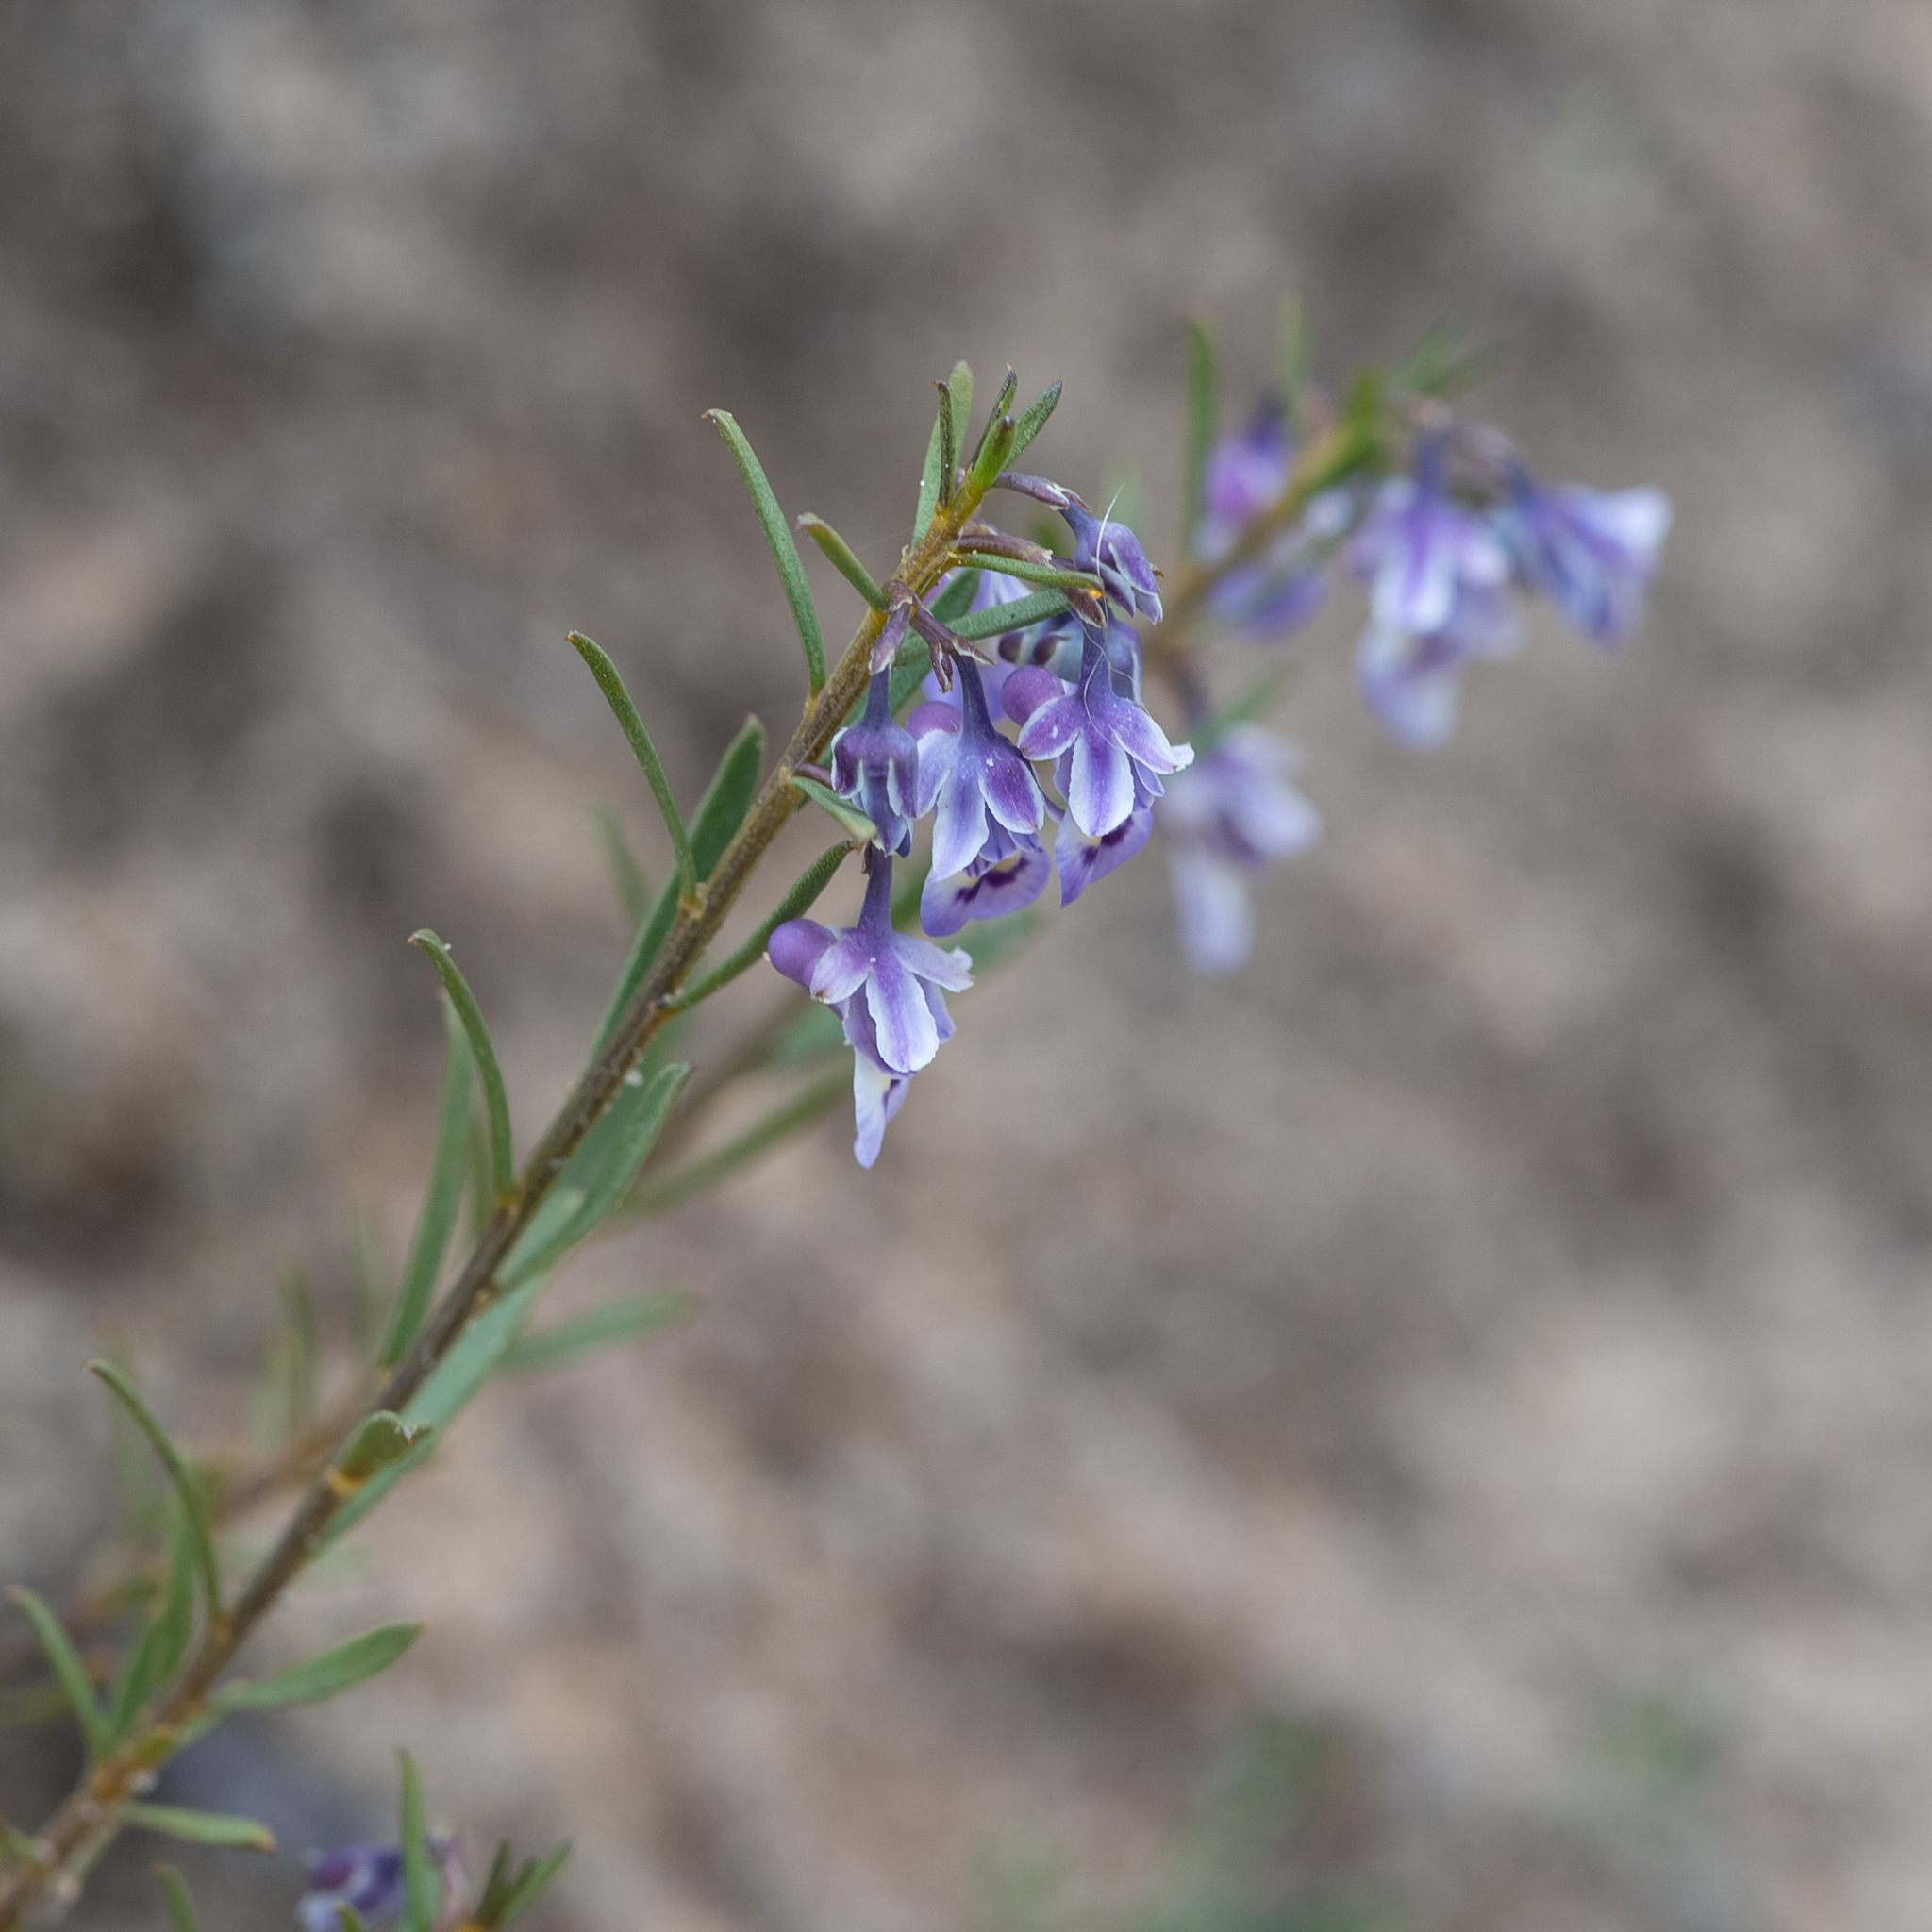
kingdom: Plantae
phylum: Tracheophyta
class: Magnoliopsida
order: Malpighiales
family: Violaceae
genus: Pigea
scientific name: Pigea floribunda
